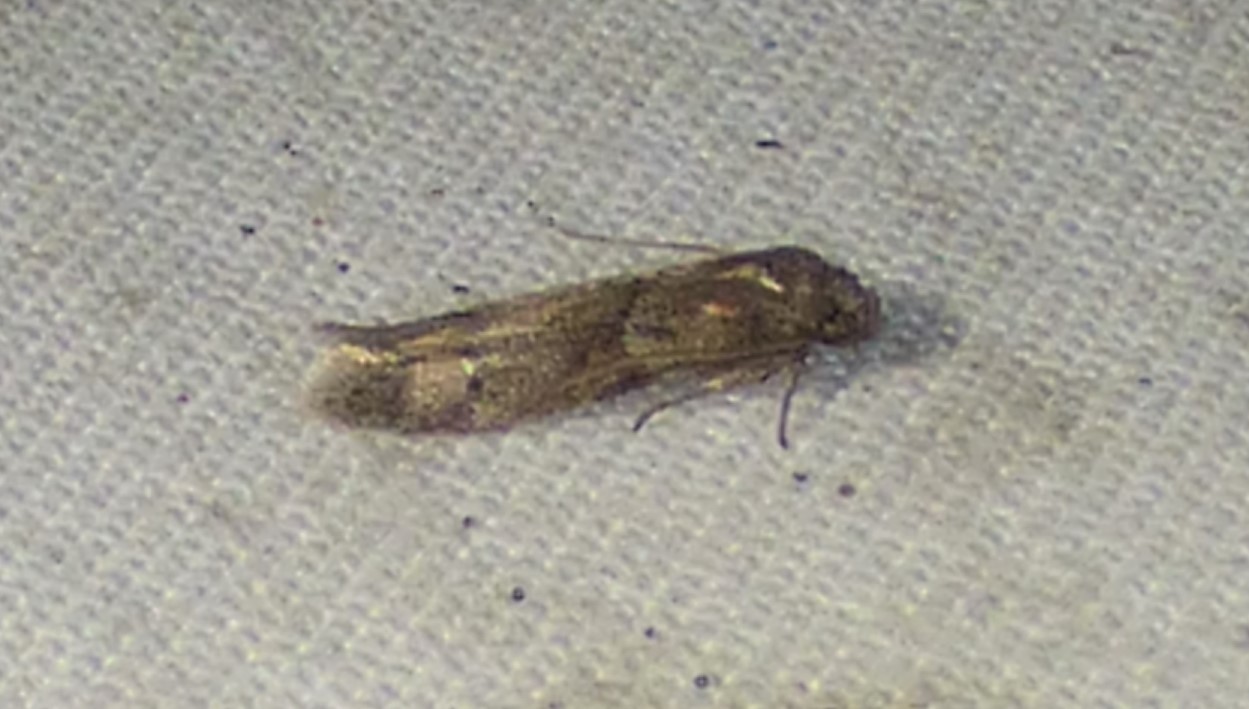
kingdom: Animalia
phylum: Arthropoda
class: Insecta
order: Lepidoptera
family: Blastobasidae
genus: Blastobasis
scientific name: Blastobasis glandulella
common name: Acorn moth
